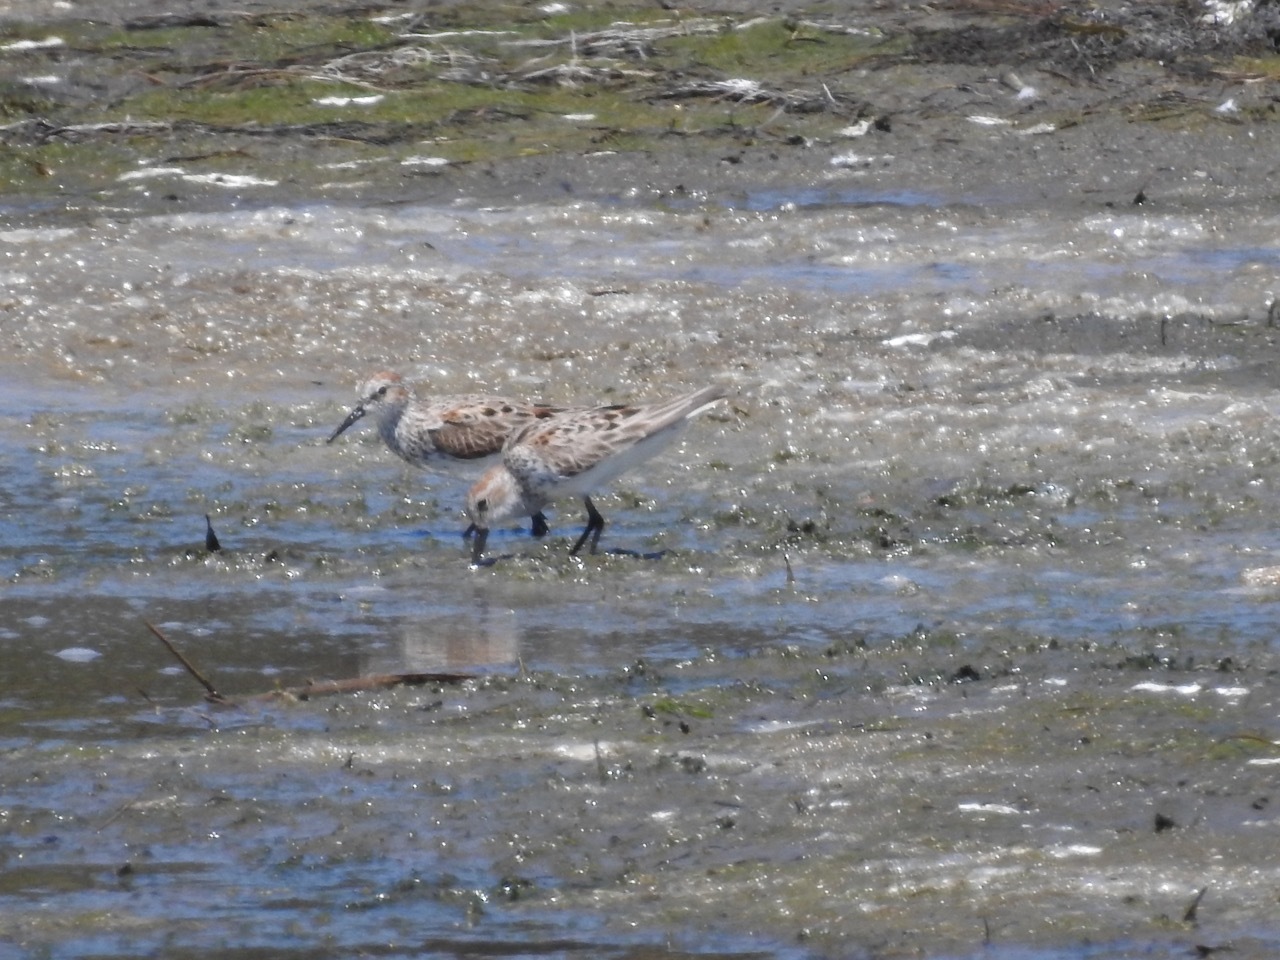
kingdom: Animalia
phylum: Chordata
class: Aves
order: Charadriiformes
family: Scolopacidae
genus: Calidris
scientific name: Calidris mauri
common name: Western sandpiper
